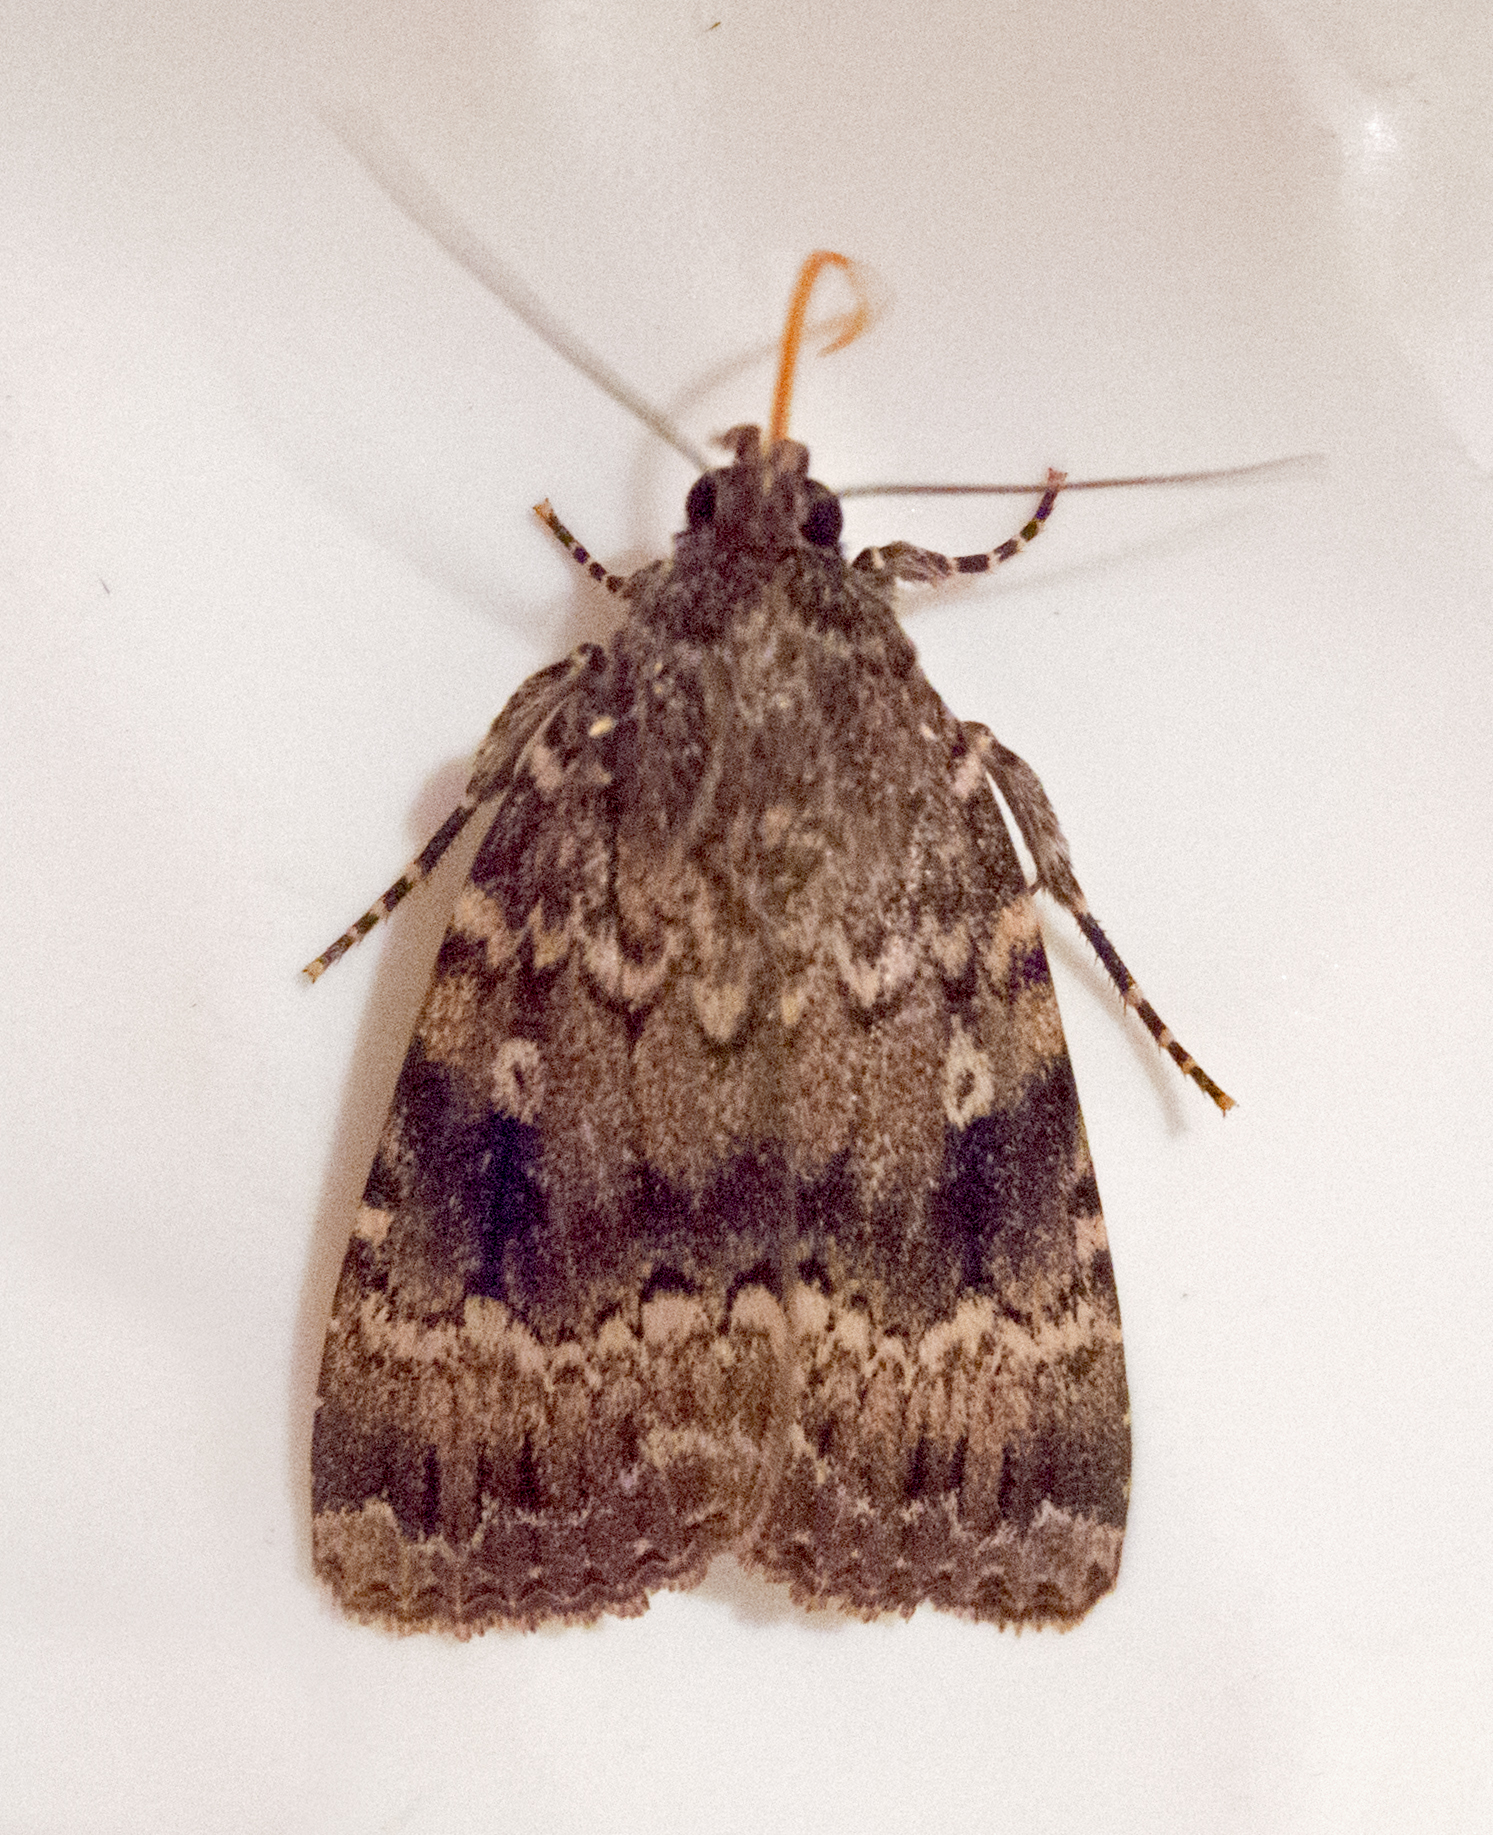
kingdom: Animalia
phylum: Arthropoda
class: Insecta
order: Lepidoptera
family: Noctuidae
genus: Amphipyra
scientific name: Amphipyra berbera
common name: Svensson's copper underwing
